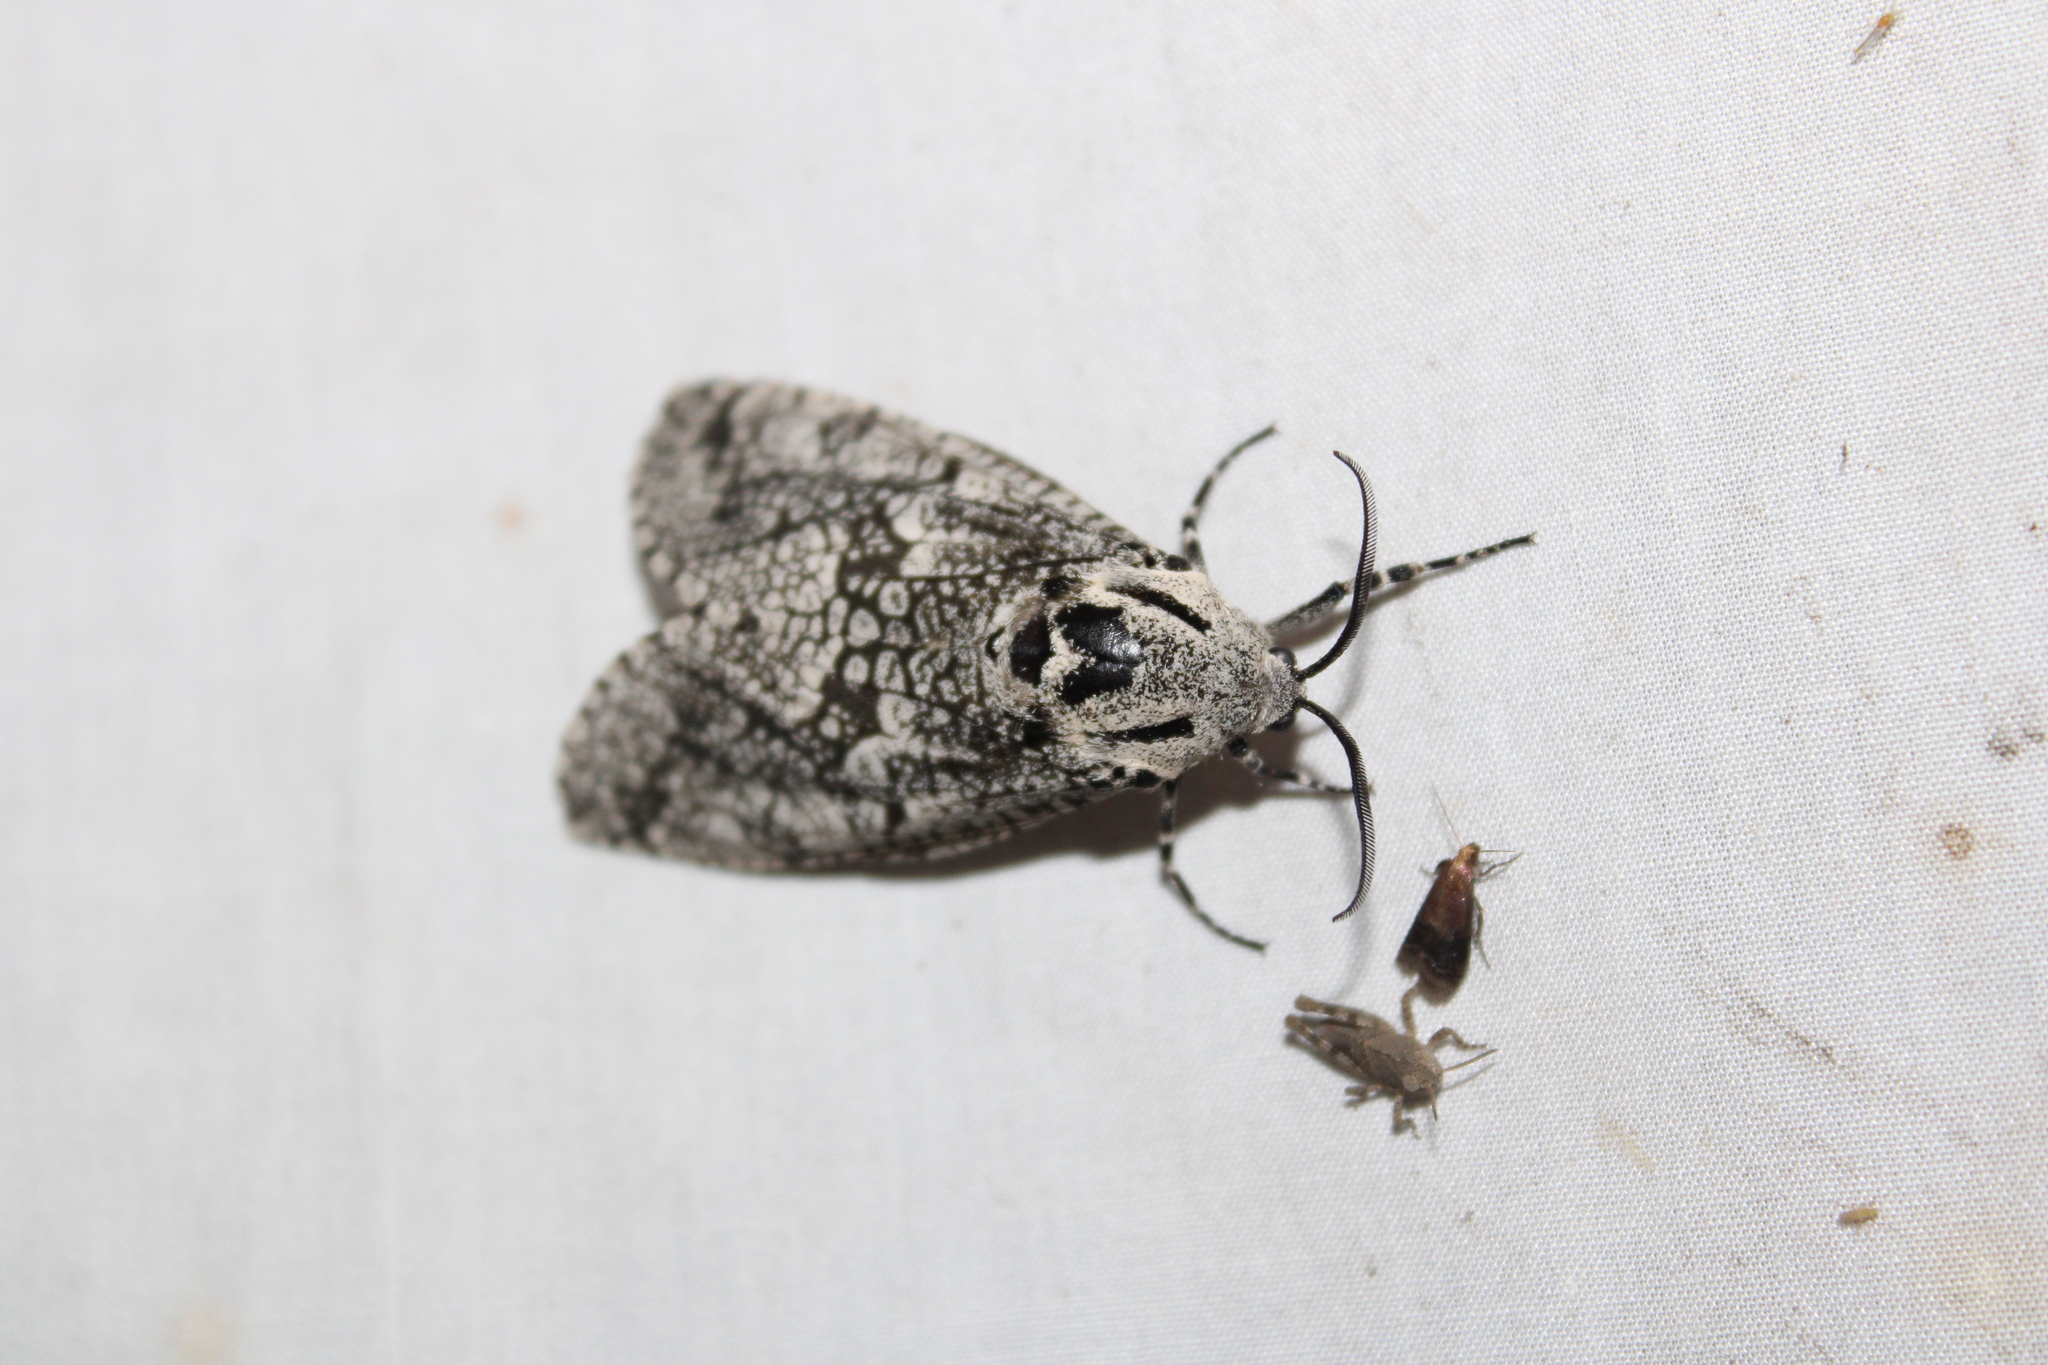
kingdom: Animalia
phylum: Arthropoda
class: Insecta
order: Lepidoptera
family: Cossidae
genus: Prionoxystus
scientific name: Prionoxystus robiniae
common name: Carpenterworm
